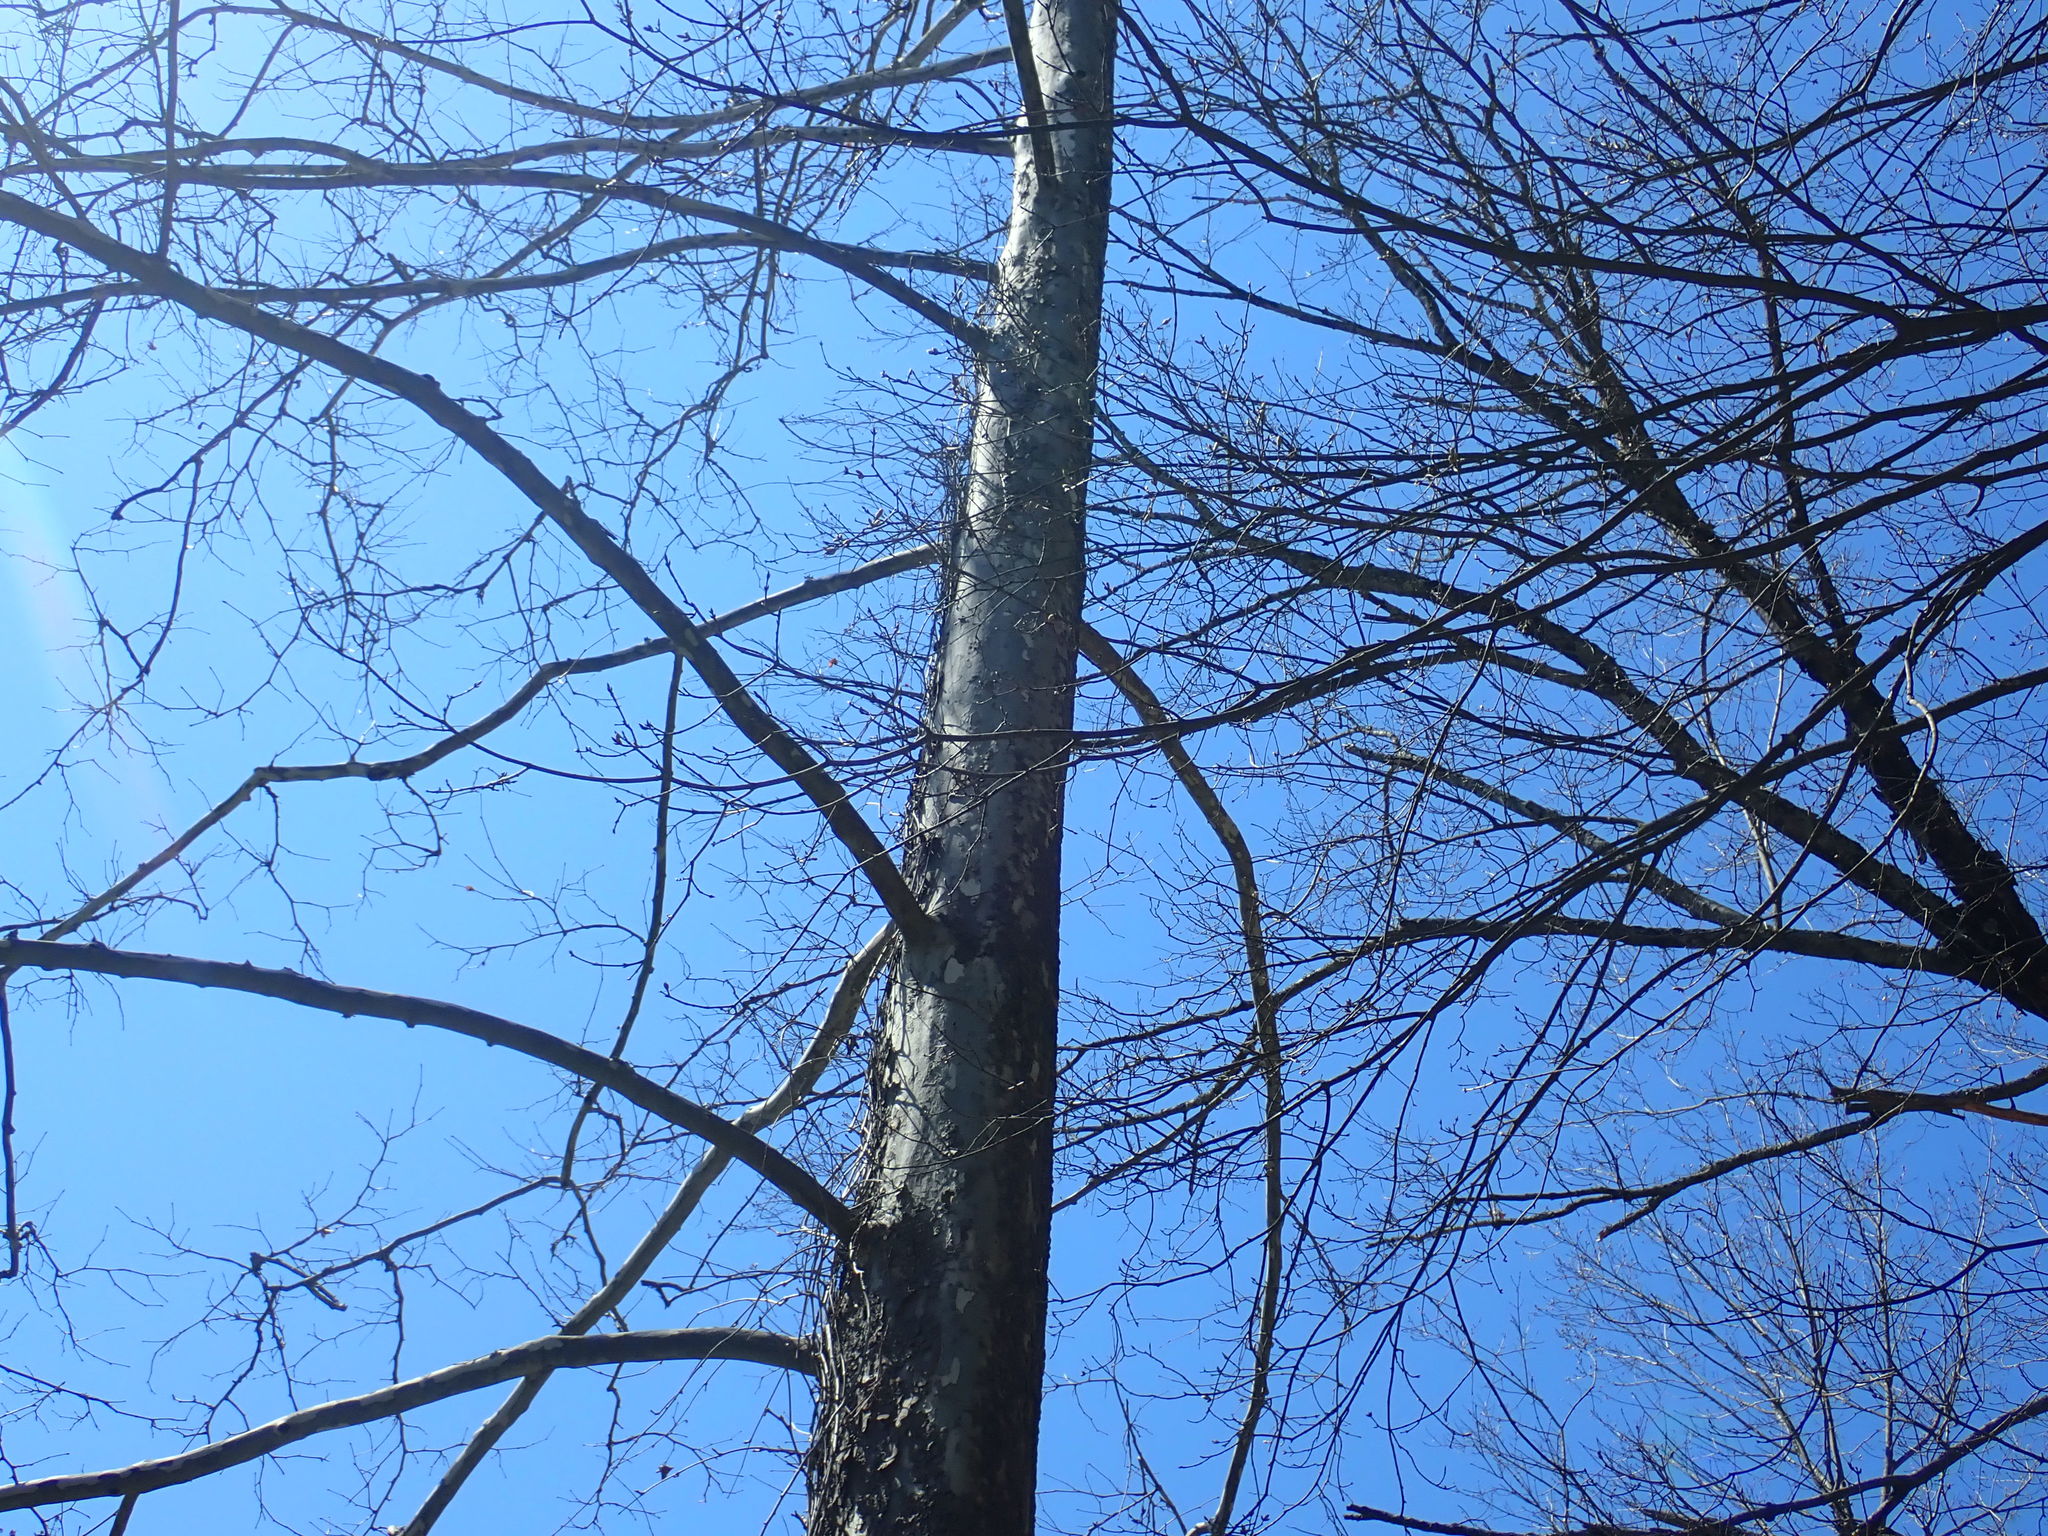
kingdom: Plantae
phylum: Tracheophyta
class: Magnoliopsida
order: Proteales
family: Platanaceae
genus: Platanus
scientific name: Platanus occidentalis
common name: American sycamore
